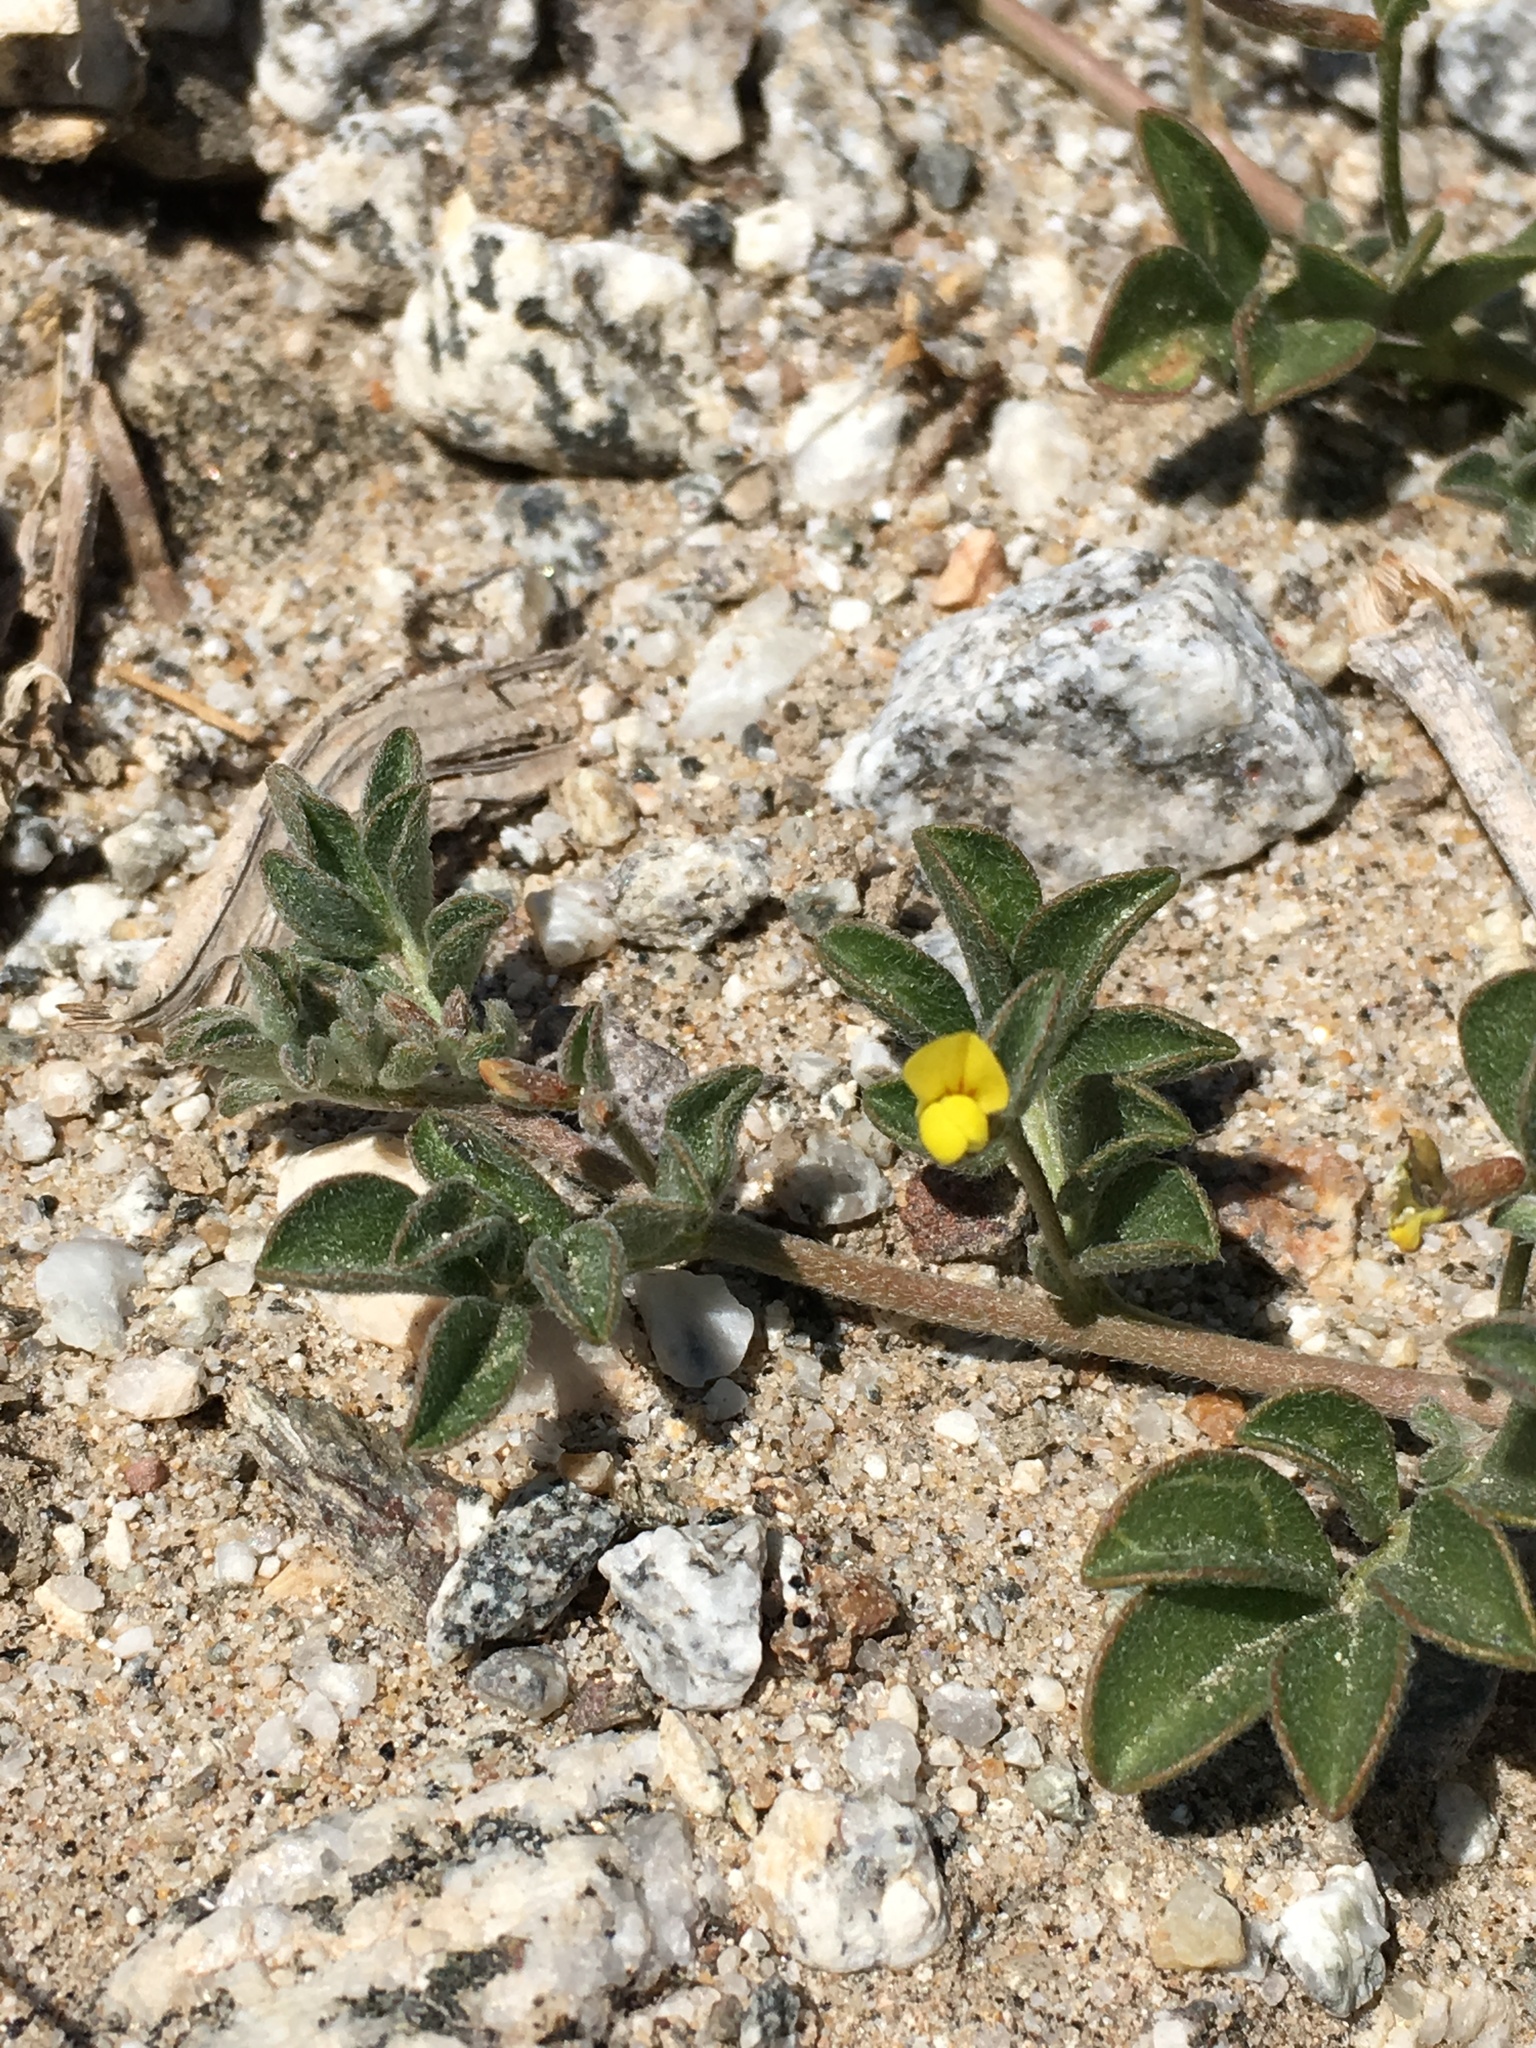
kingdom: Plantae
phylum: Tracheophyta
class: Magnoliopsida
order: Fabales
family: Fabaceae
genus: Acmispon
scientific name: Acmispon strigosus
